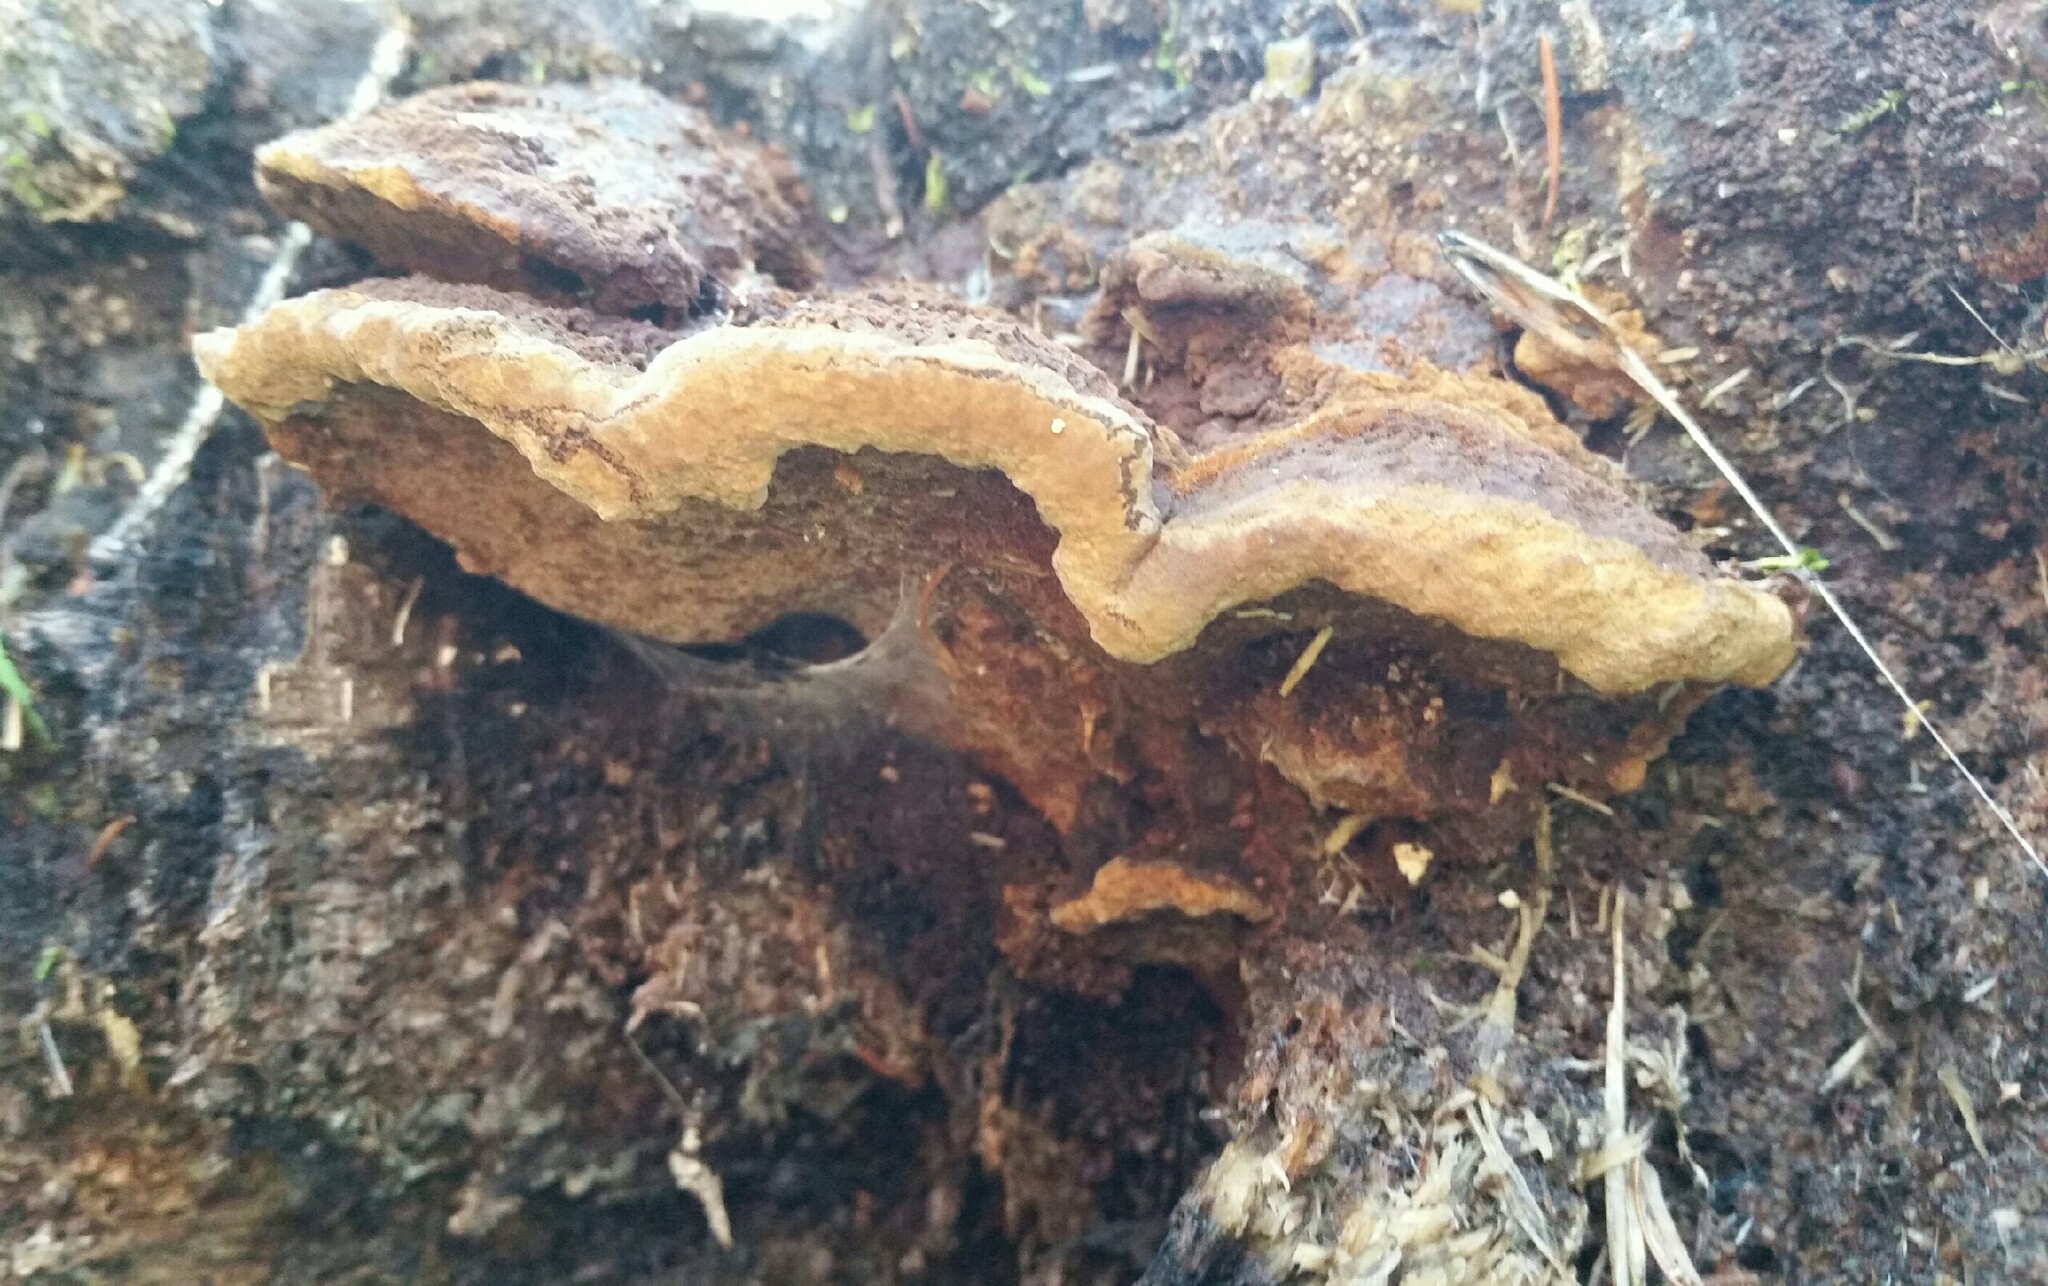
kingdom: Fungi
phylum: Basidiomycota
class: Agaricomycetes
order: Hymenochaetales
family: Hymenochaetaceae
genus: Phellinus
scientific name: Phellinus gilvus
